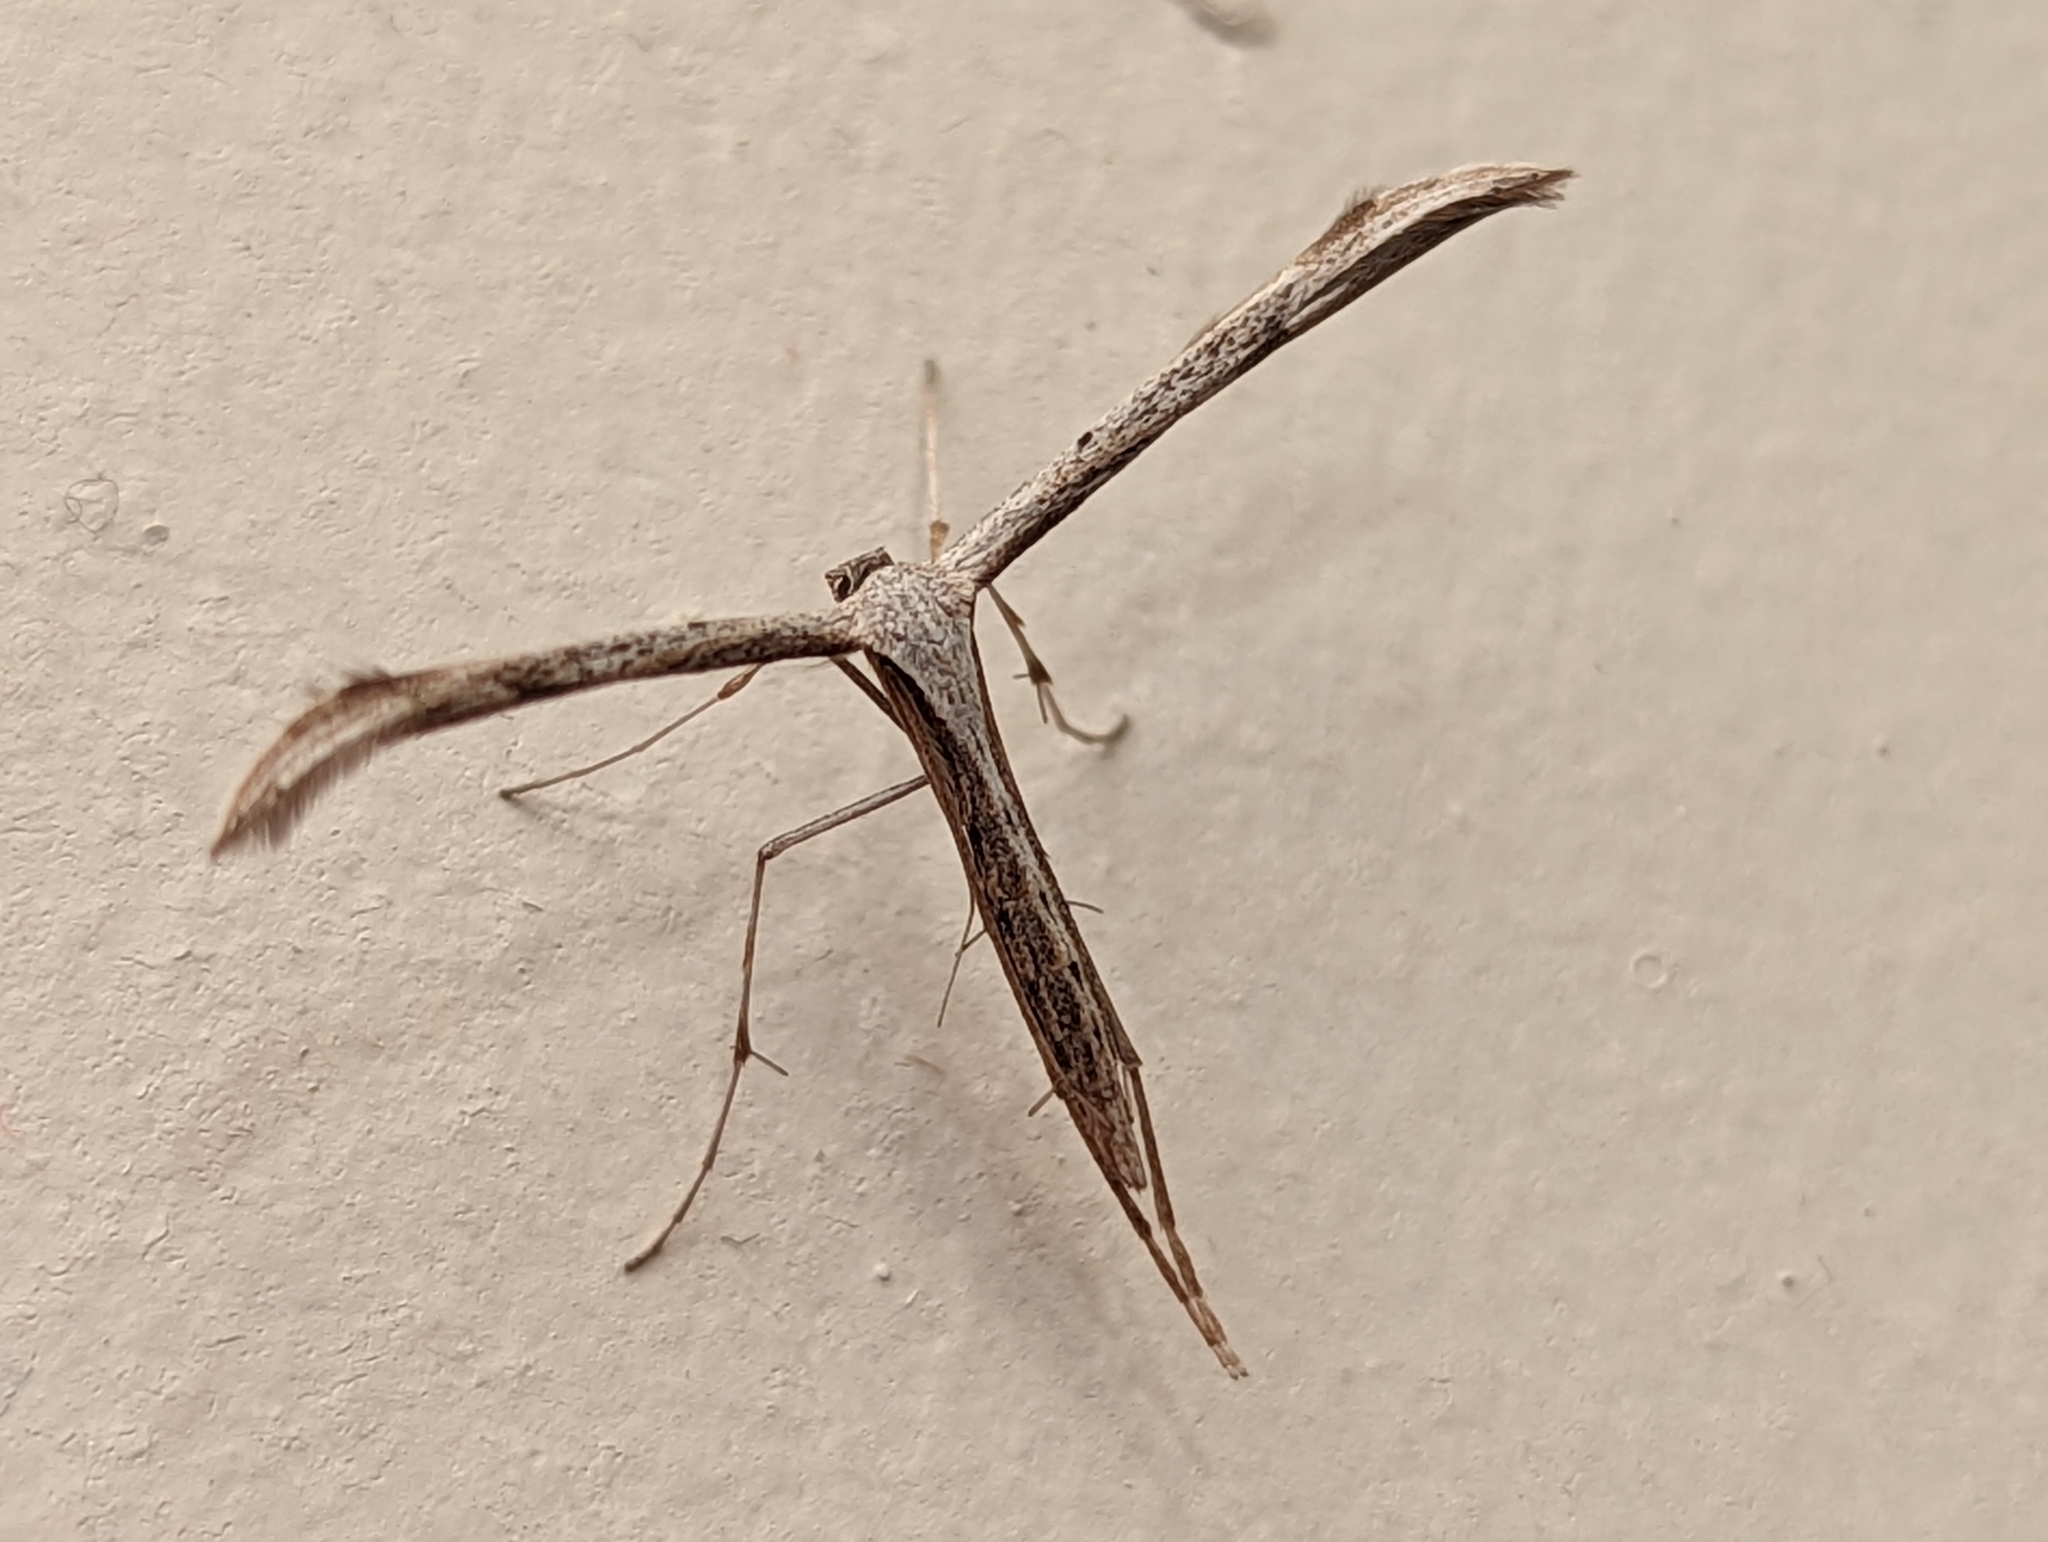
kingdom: Animalia
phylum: Arthropoda
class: Insecta
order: Lepidoptera
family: Pterophoridae
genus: Emmelina
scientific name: Emmelina monodactyla
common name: Common plume
